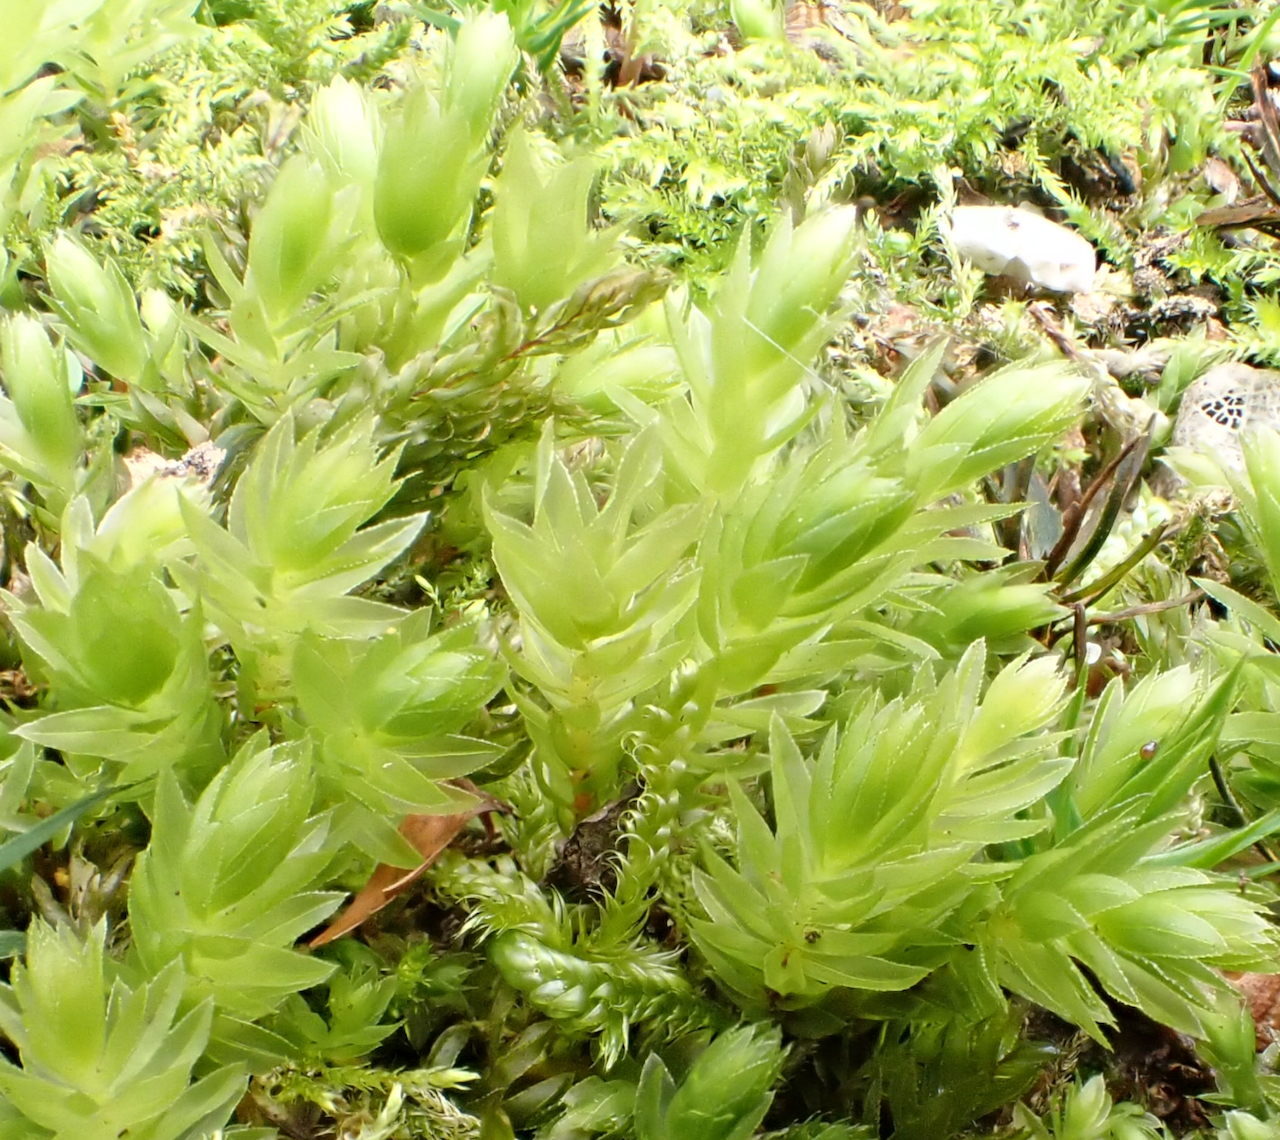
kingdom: Plantae
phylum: Bryophyta
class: Bryopsida
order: Bryales
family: Mniaceae
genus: Mnium
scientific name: Mnium hornum
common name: Swan's-neck leafy moss
